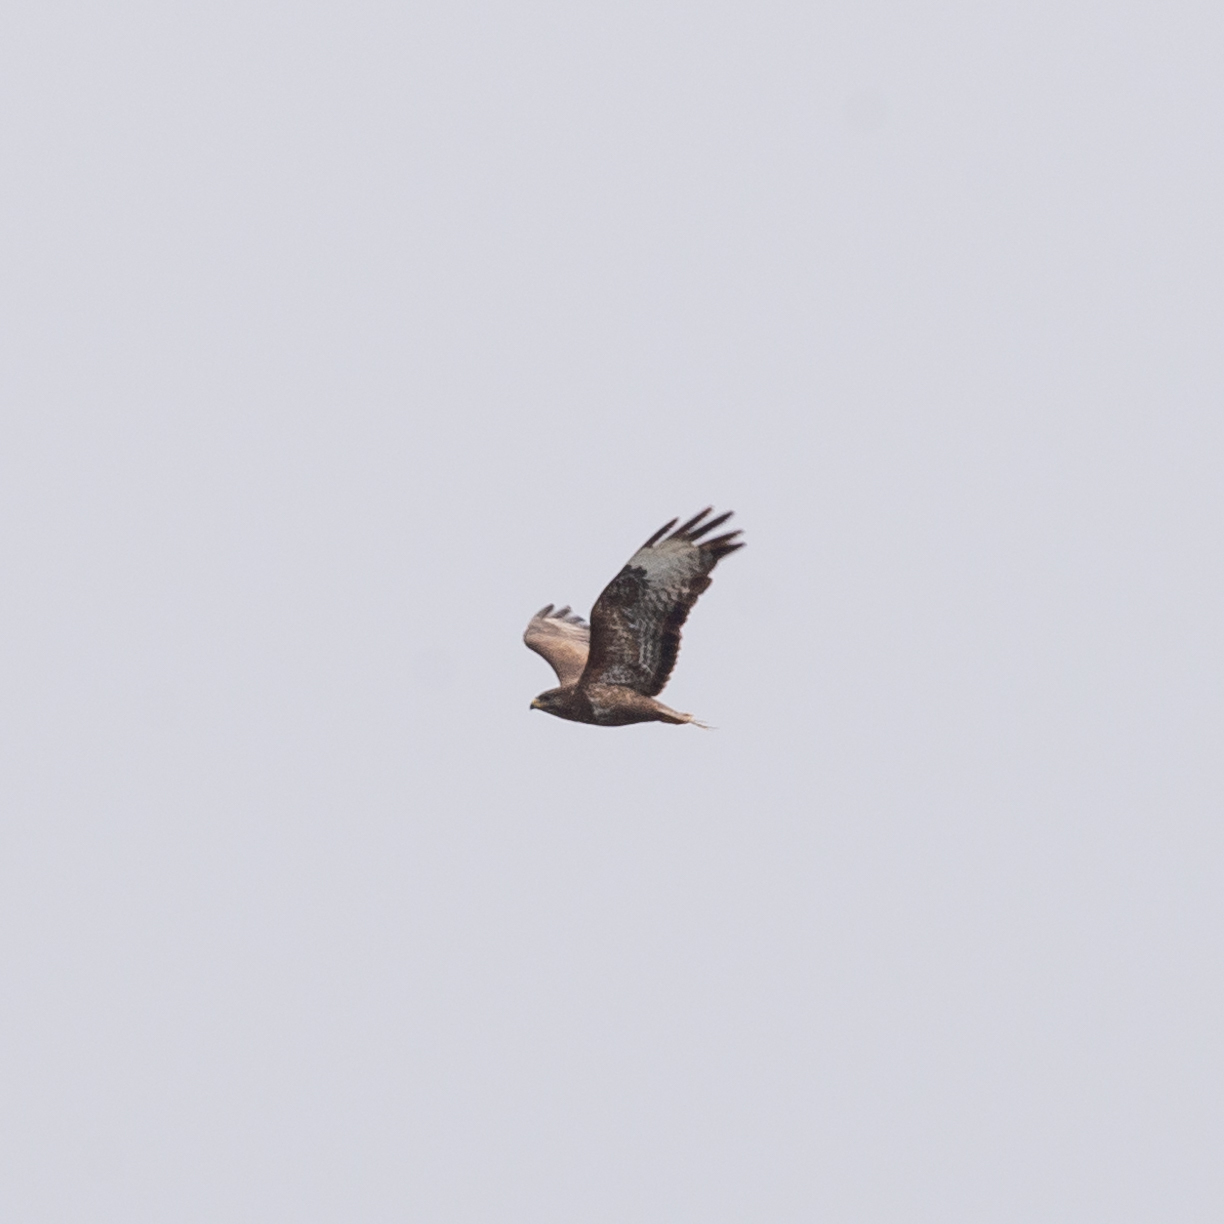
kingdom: Animalia
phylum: Chordata
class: Aves
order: Accipitriformes
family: Accipitridae
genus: Buteo
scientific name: Buteo buteo
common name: Common buzzard
